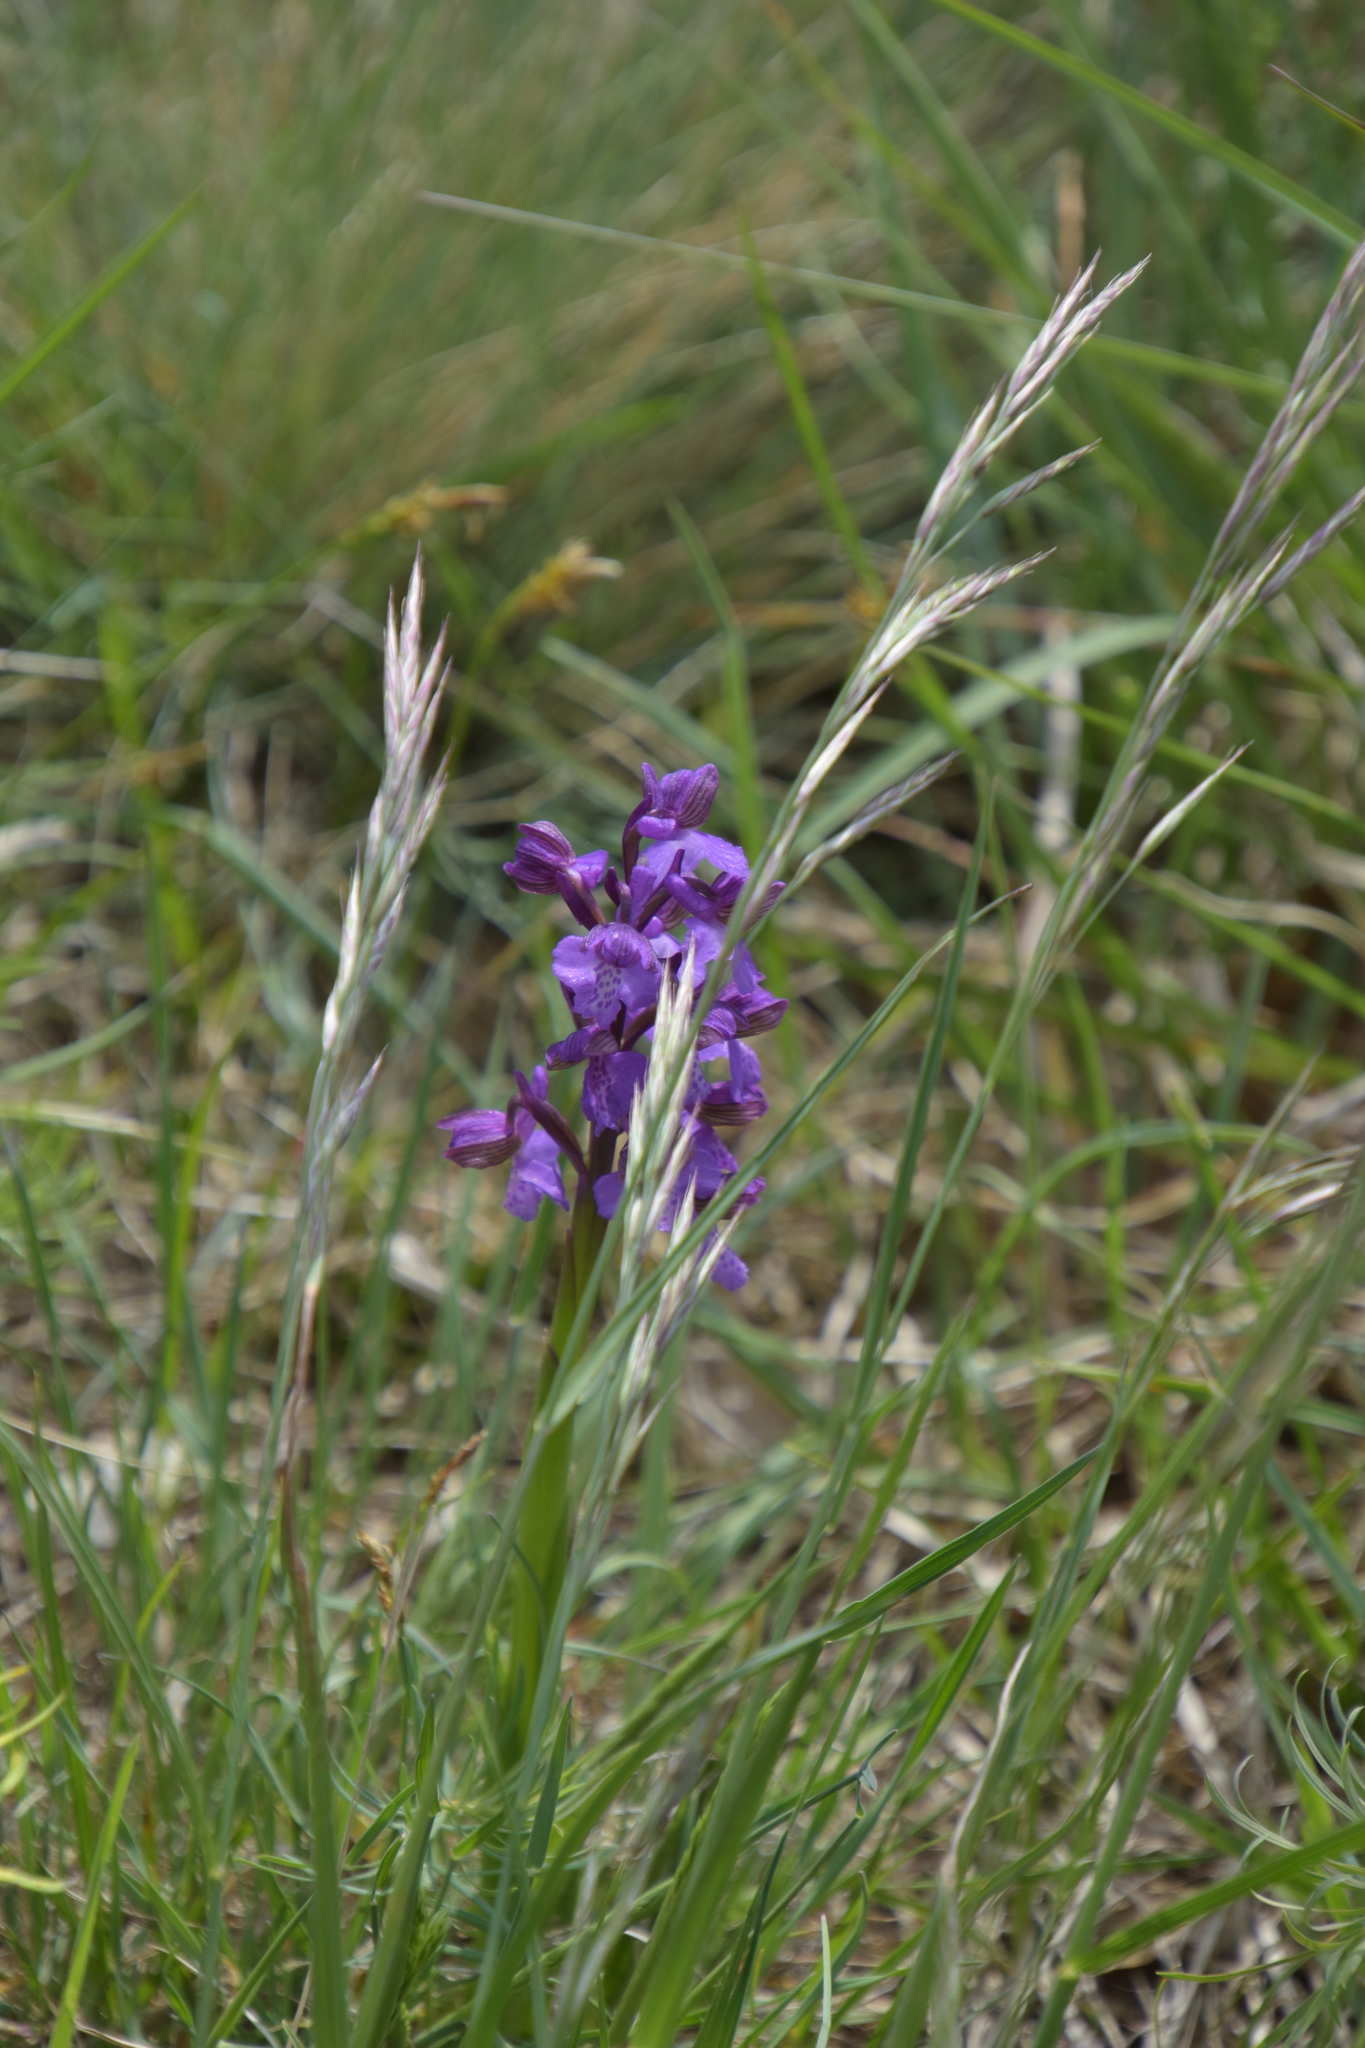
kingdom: Plantae
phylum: Tracheophyta
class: Liliopsida
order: Asparagales
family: Orchidaceae
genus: Anacamptis
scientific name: Anacamptis morio
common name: Green-winged orchid
